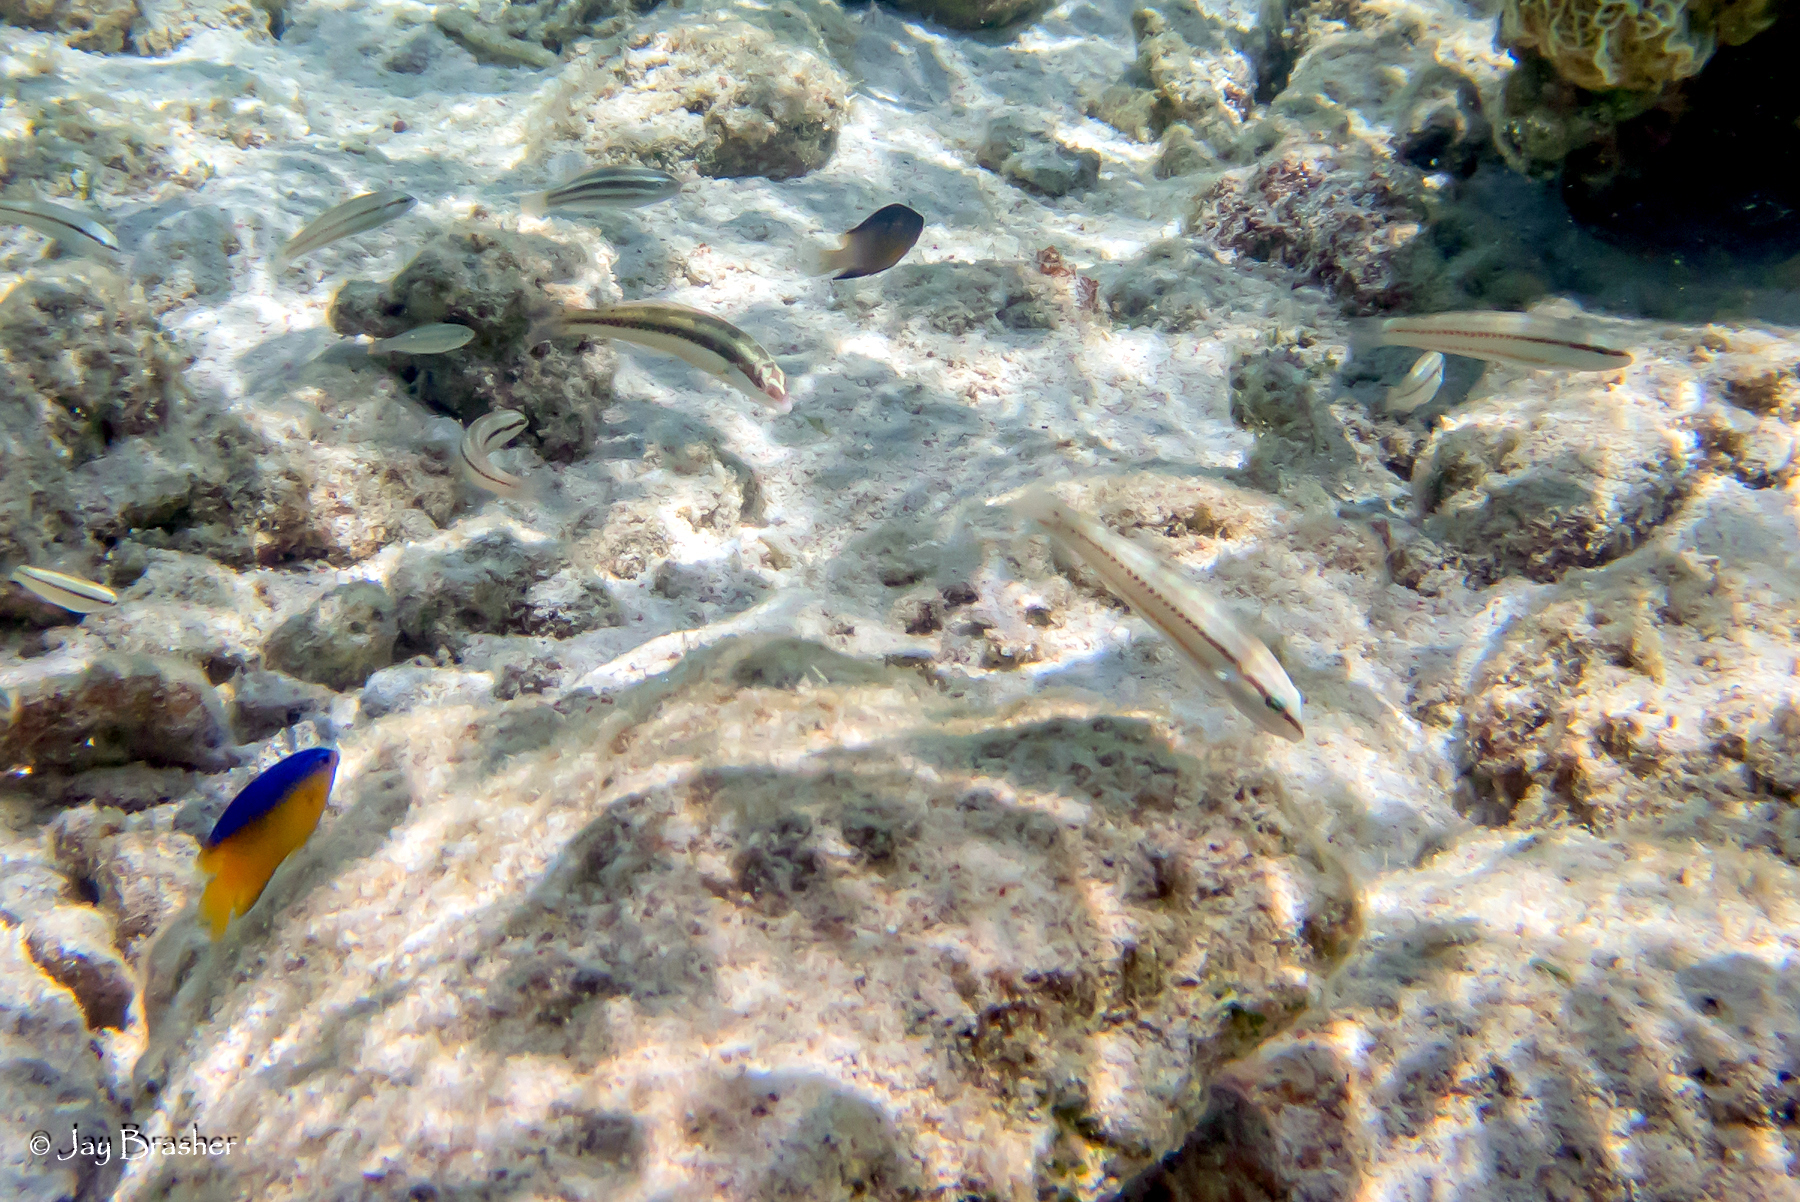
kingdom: Animalia
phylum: Chordata
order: Perciformes
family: Labridae
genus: Halichoeres
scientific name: Halichoeres bivittatus
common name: Slippery dick
